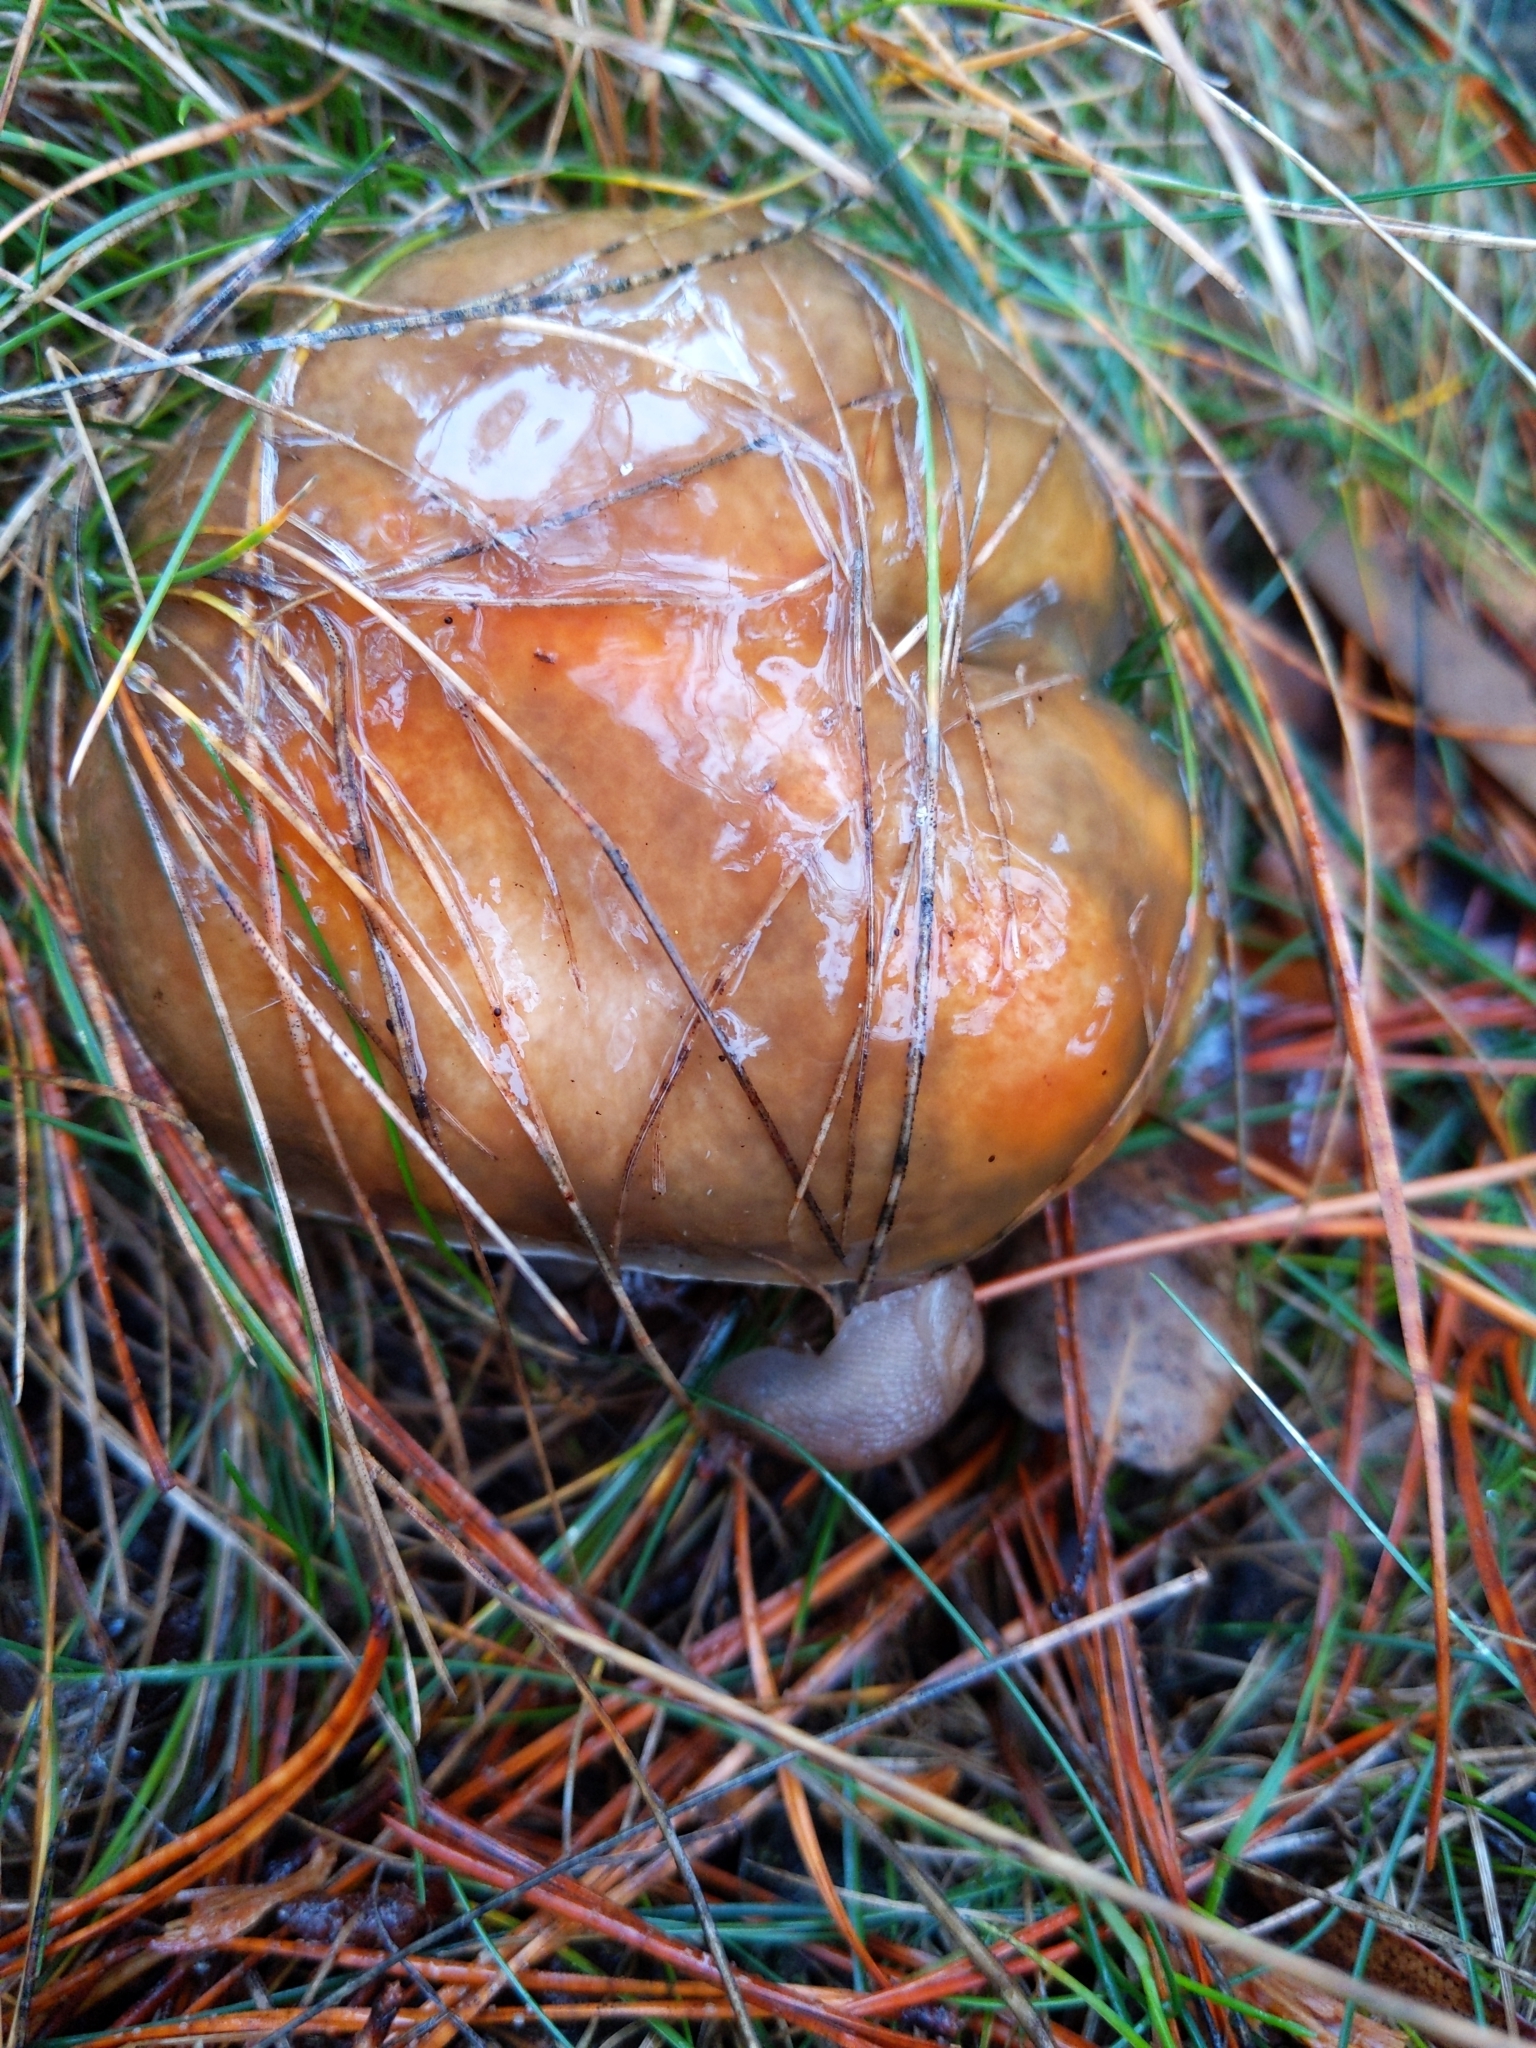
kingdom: Fungi
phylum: Basidiomycota
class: Agaricomycetes
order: Boletales
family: Suillaceae
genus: Suillus
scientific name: Suillus pungens
